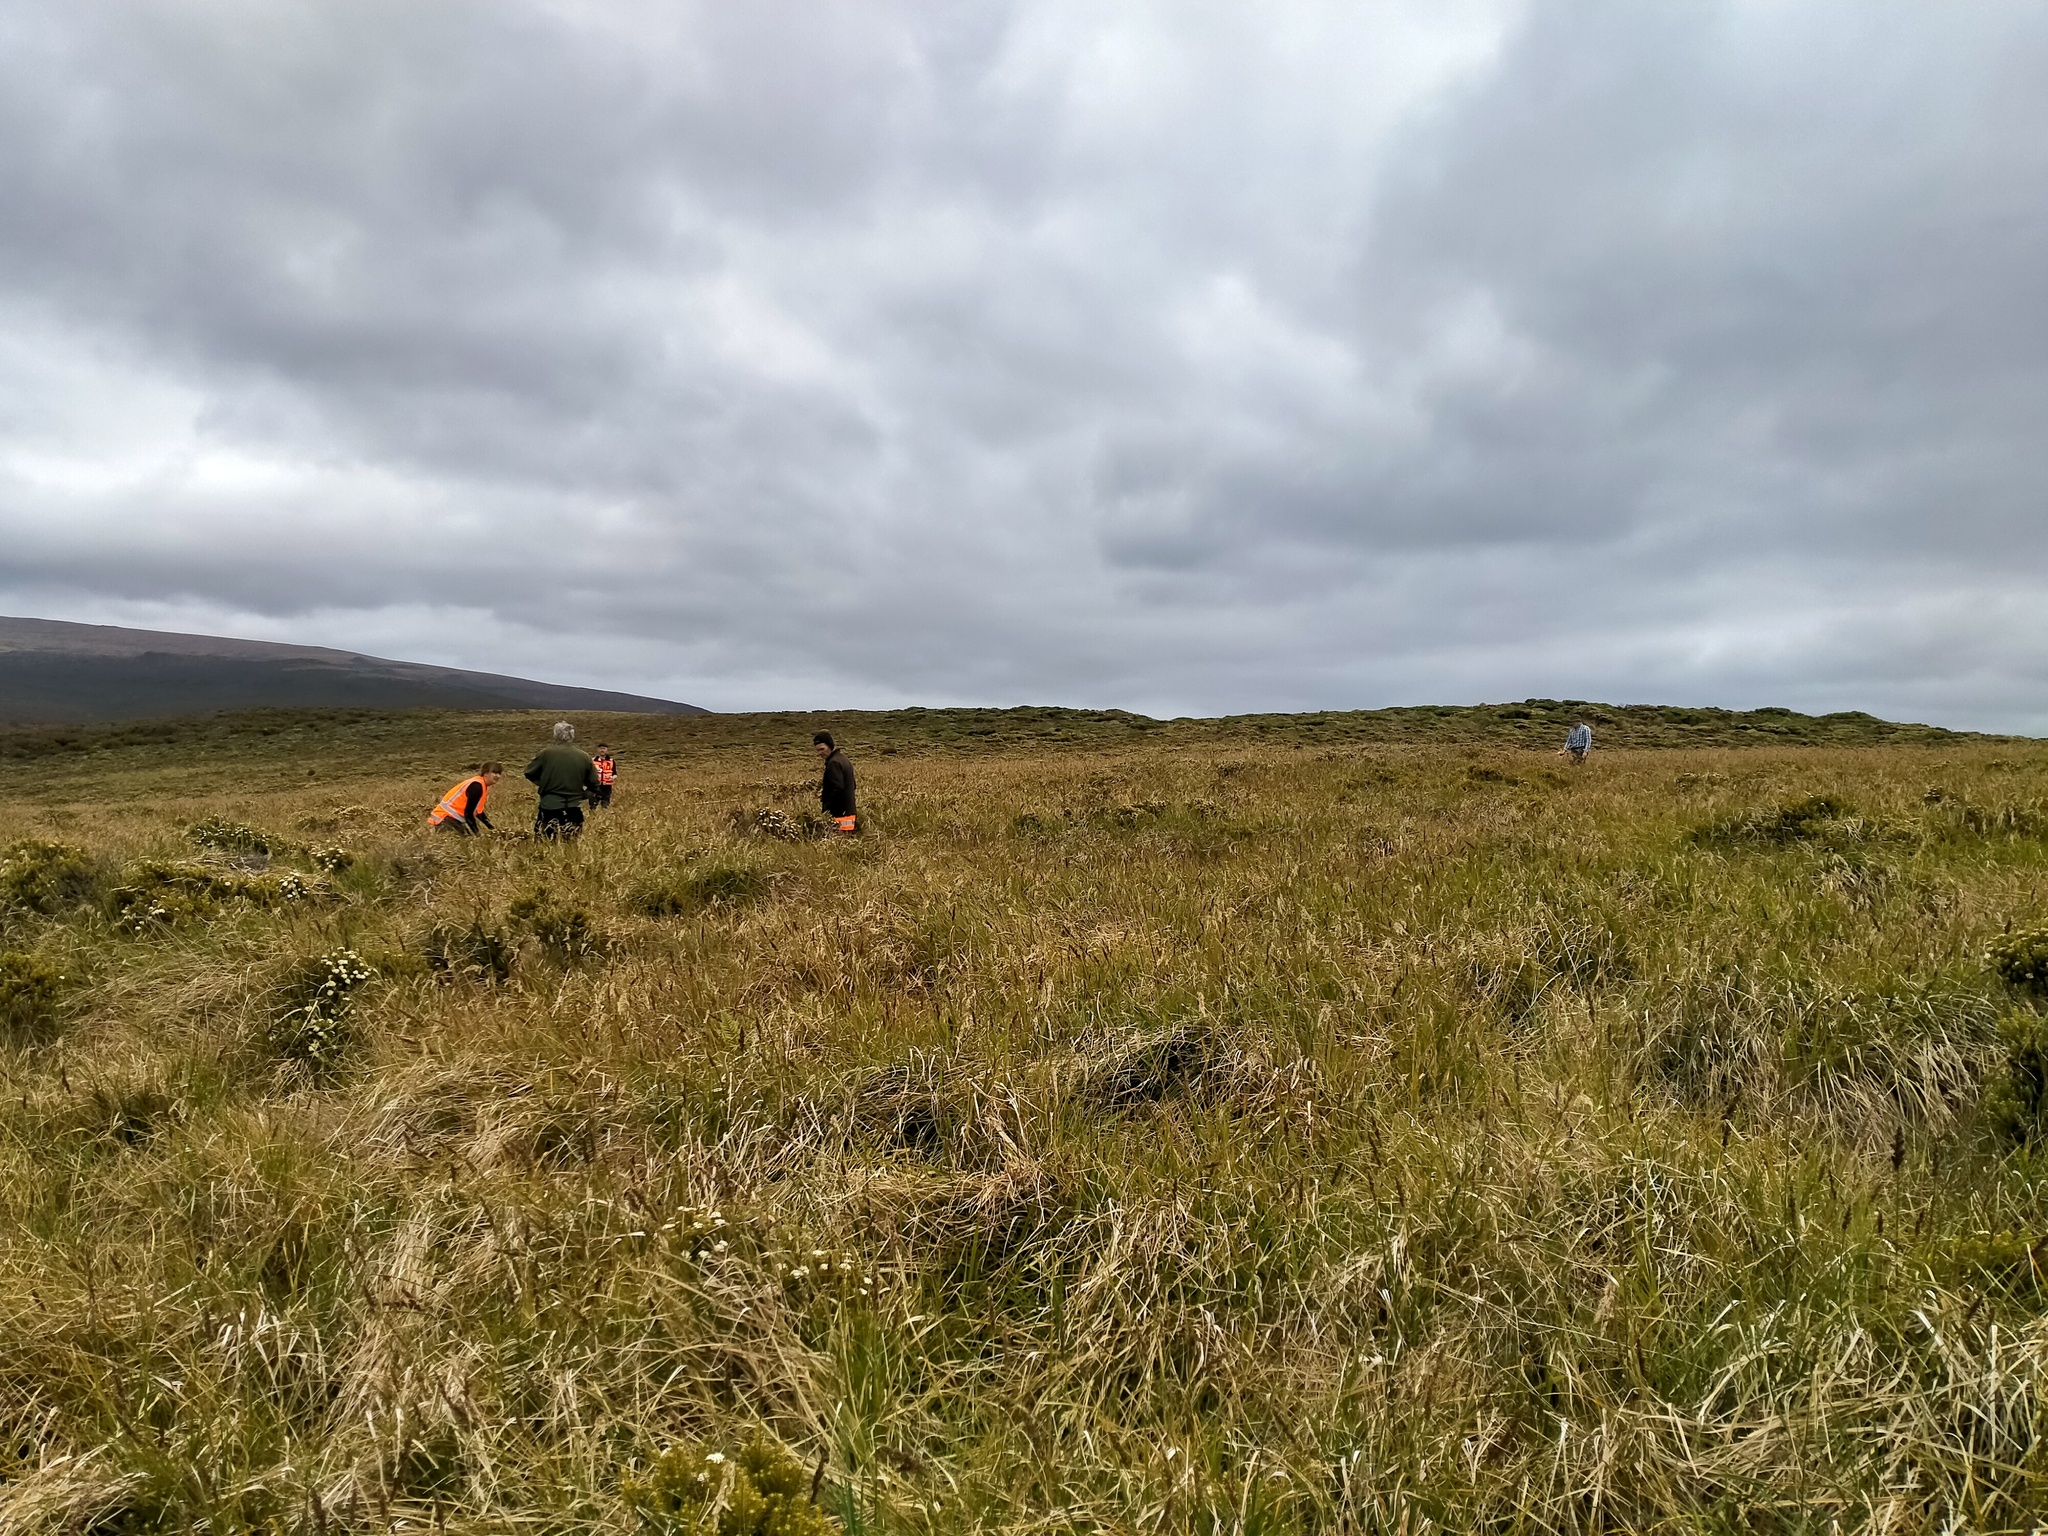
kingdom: Plantae
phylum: Tracheophyta
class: Liliopsida
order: Poales
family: Cyperaceae
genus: Carex
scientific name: Carex appressa
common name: Tussock sedge
